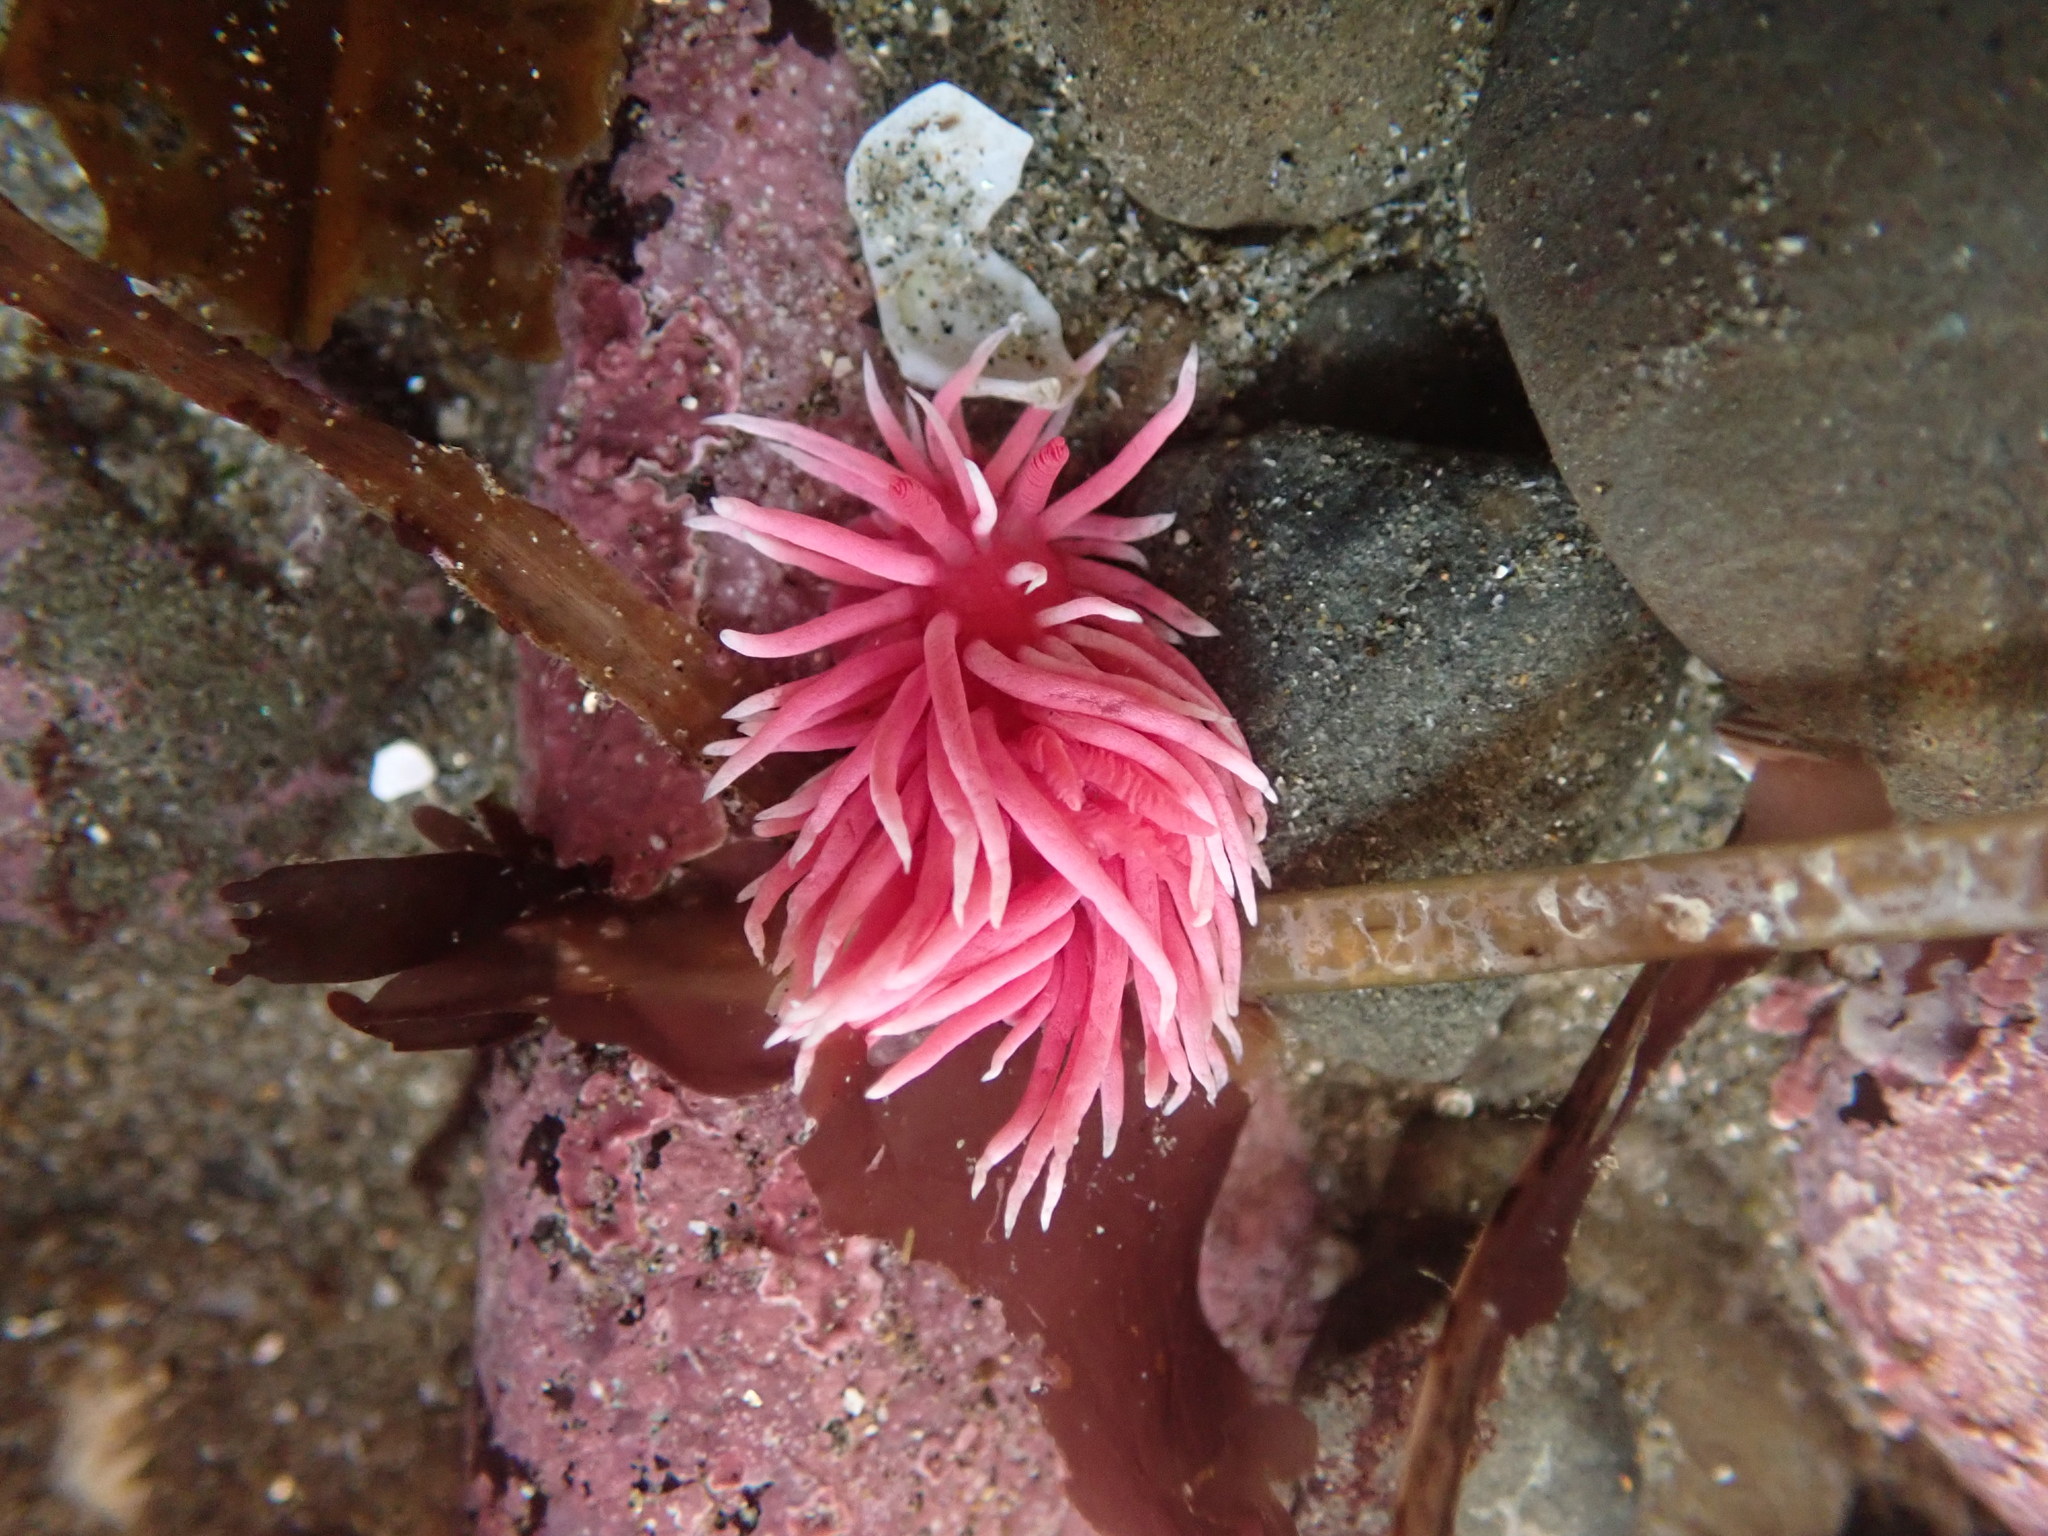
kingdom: Animalia
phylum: Mollusca
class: Gastropoda
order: Nudibranchia
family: Goniodorididae
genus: Okenia
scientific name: Okenia
